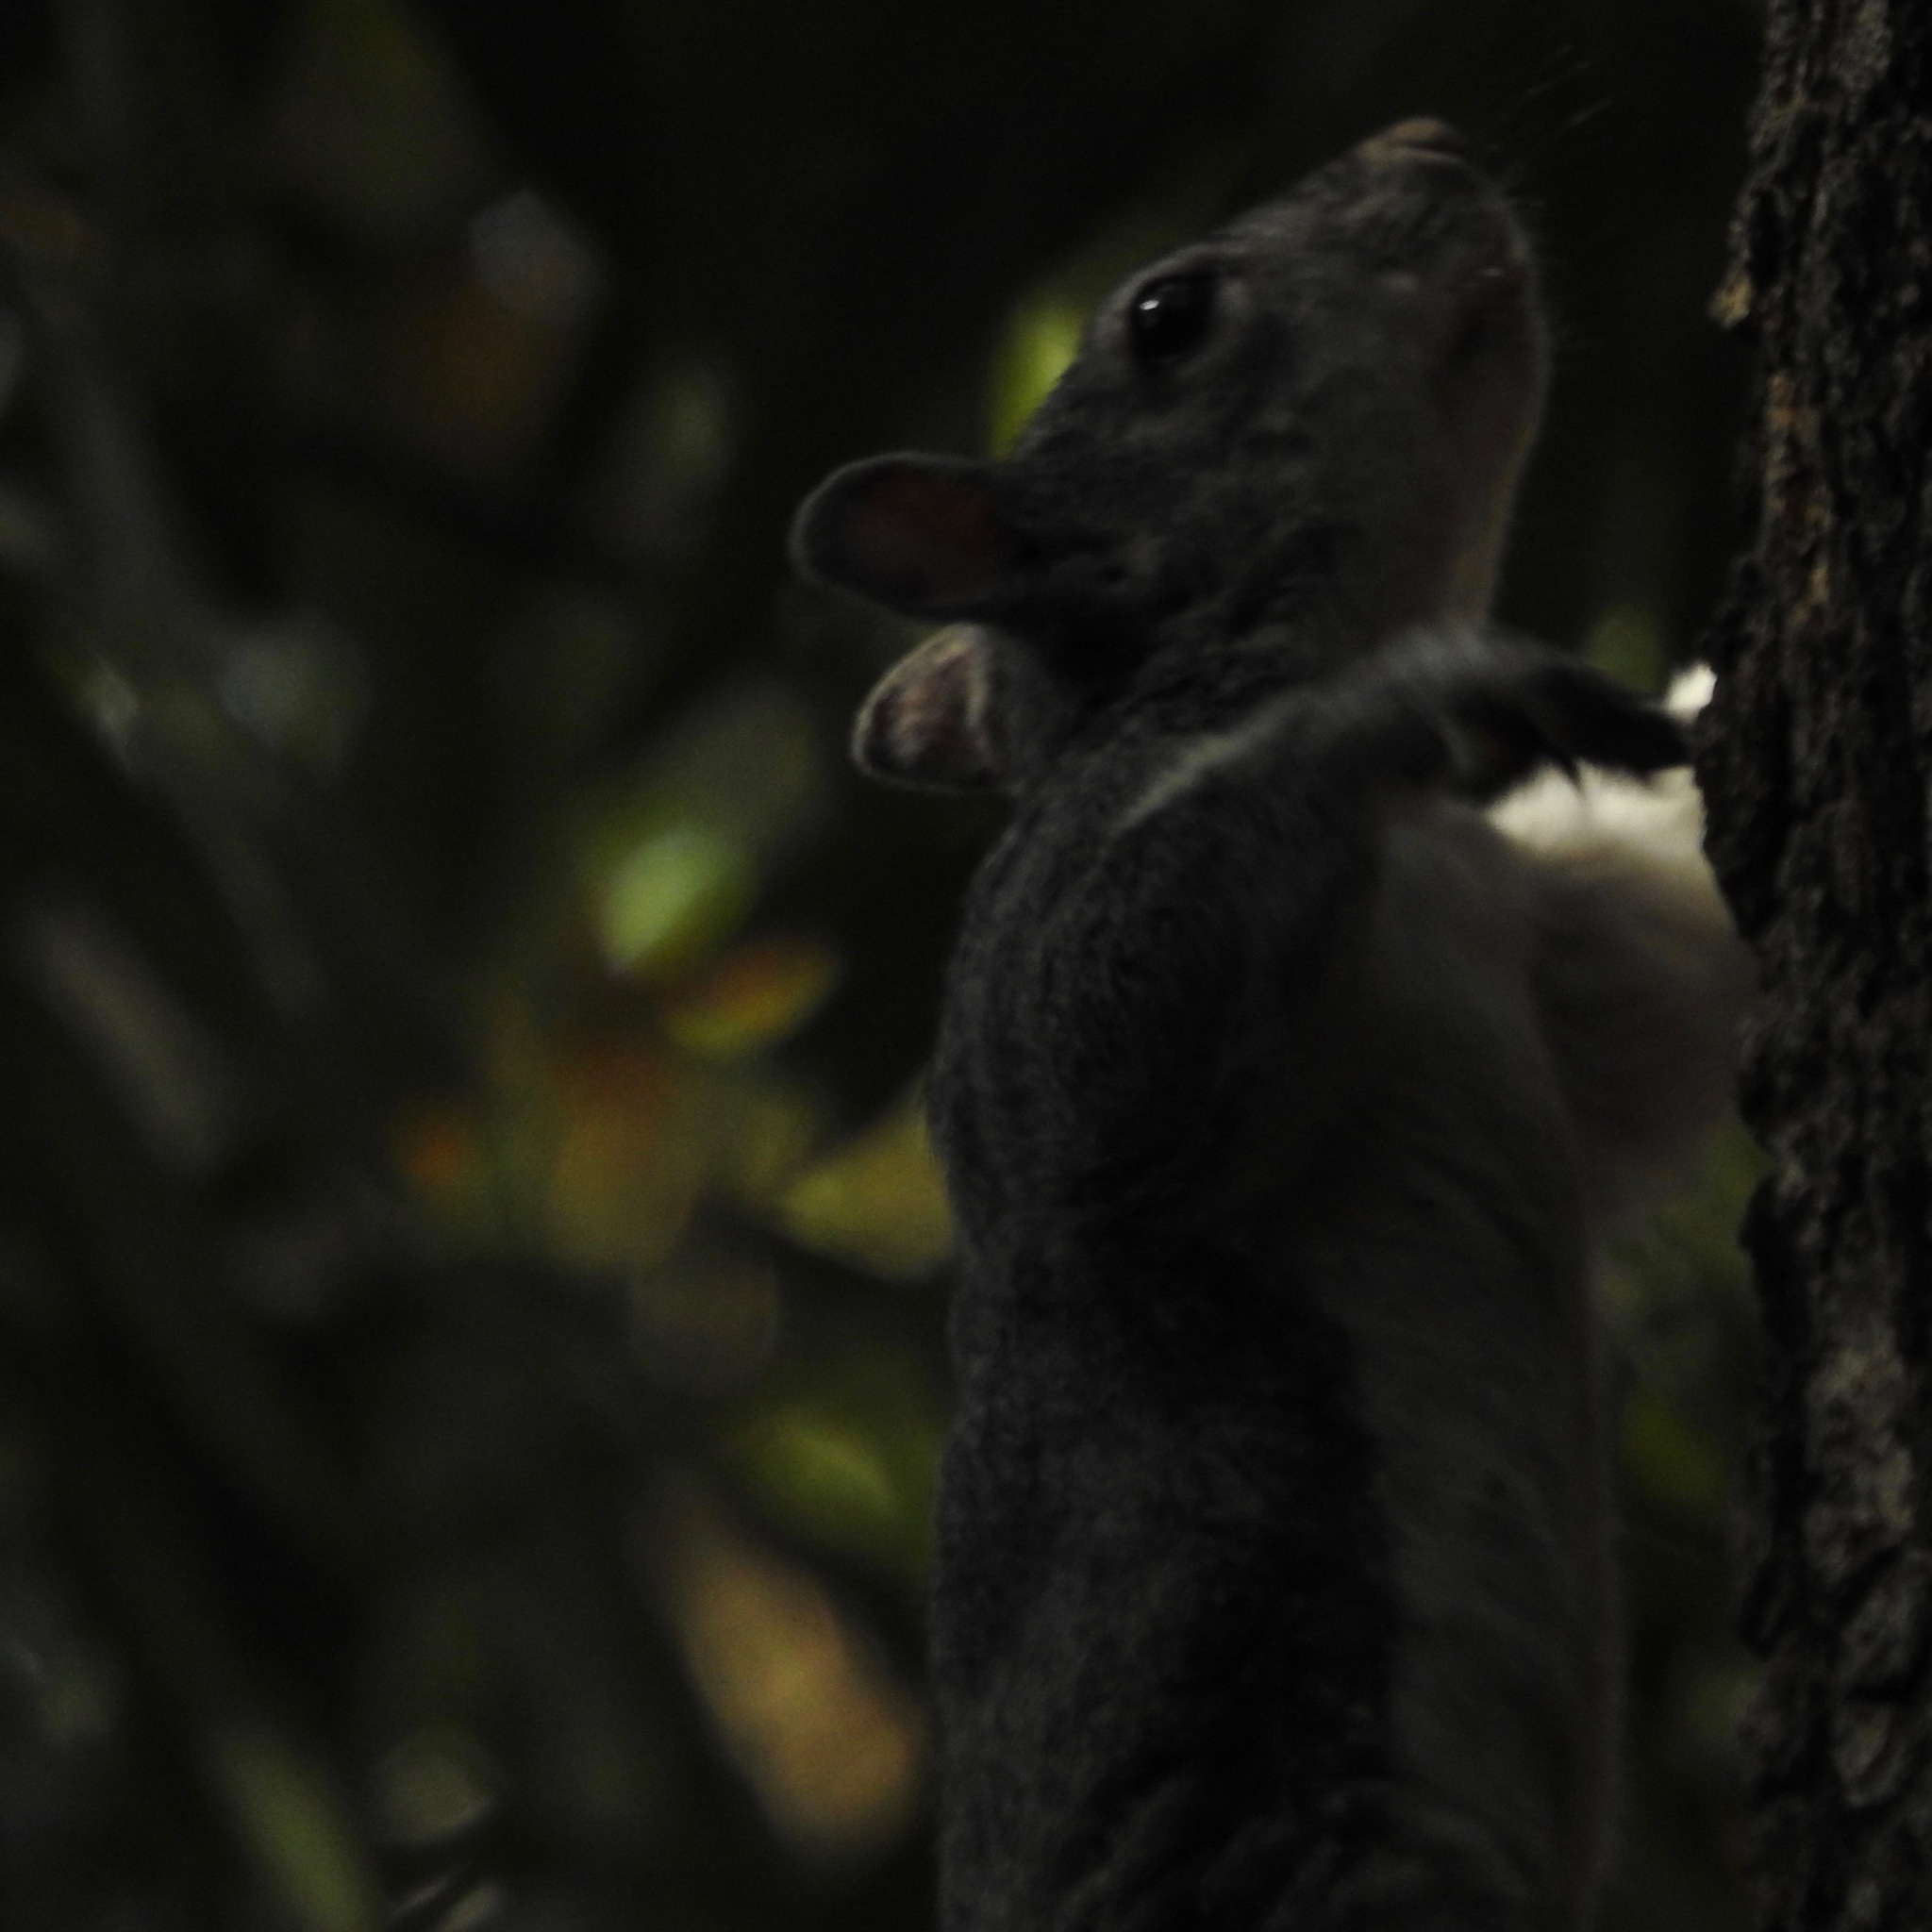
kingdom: Animalia
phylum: Chordata
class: Mammalia
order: Rodentia
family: Sciuridae
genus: Sciurus
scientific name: Sciurus griseus
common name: Western gray squirrel
